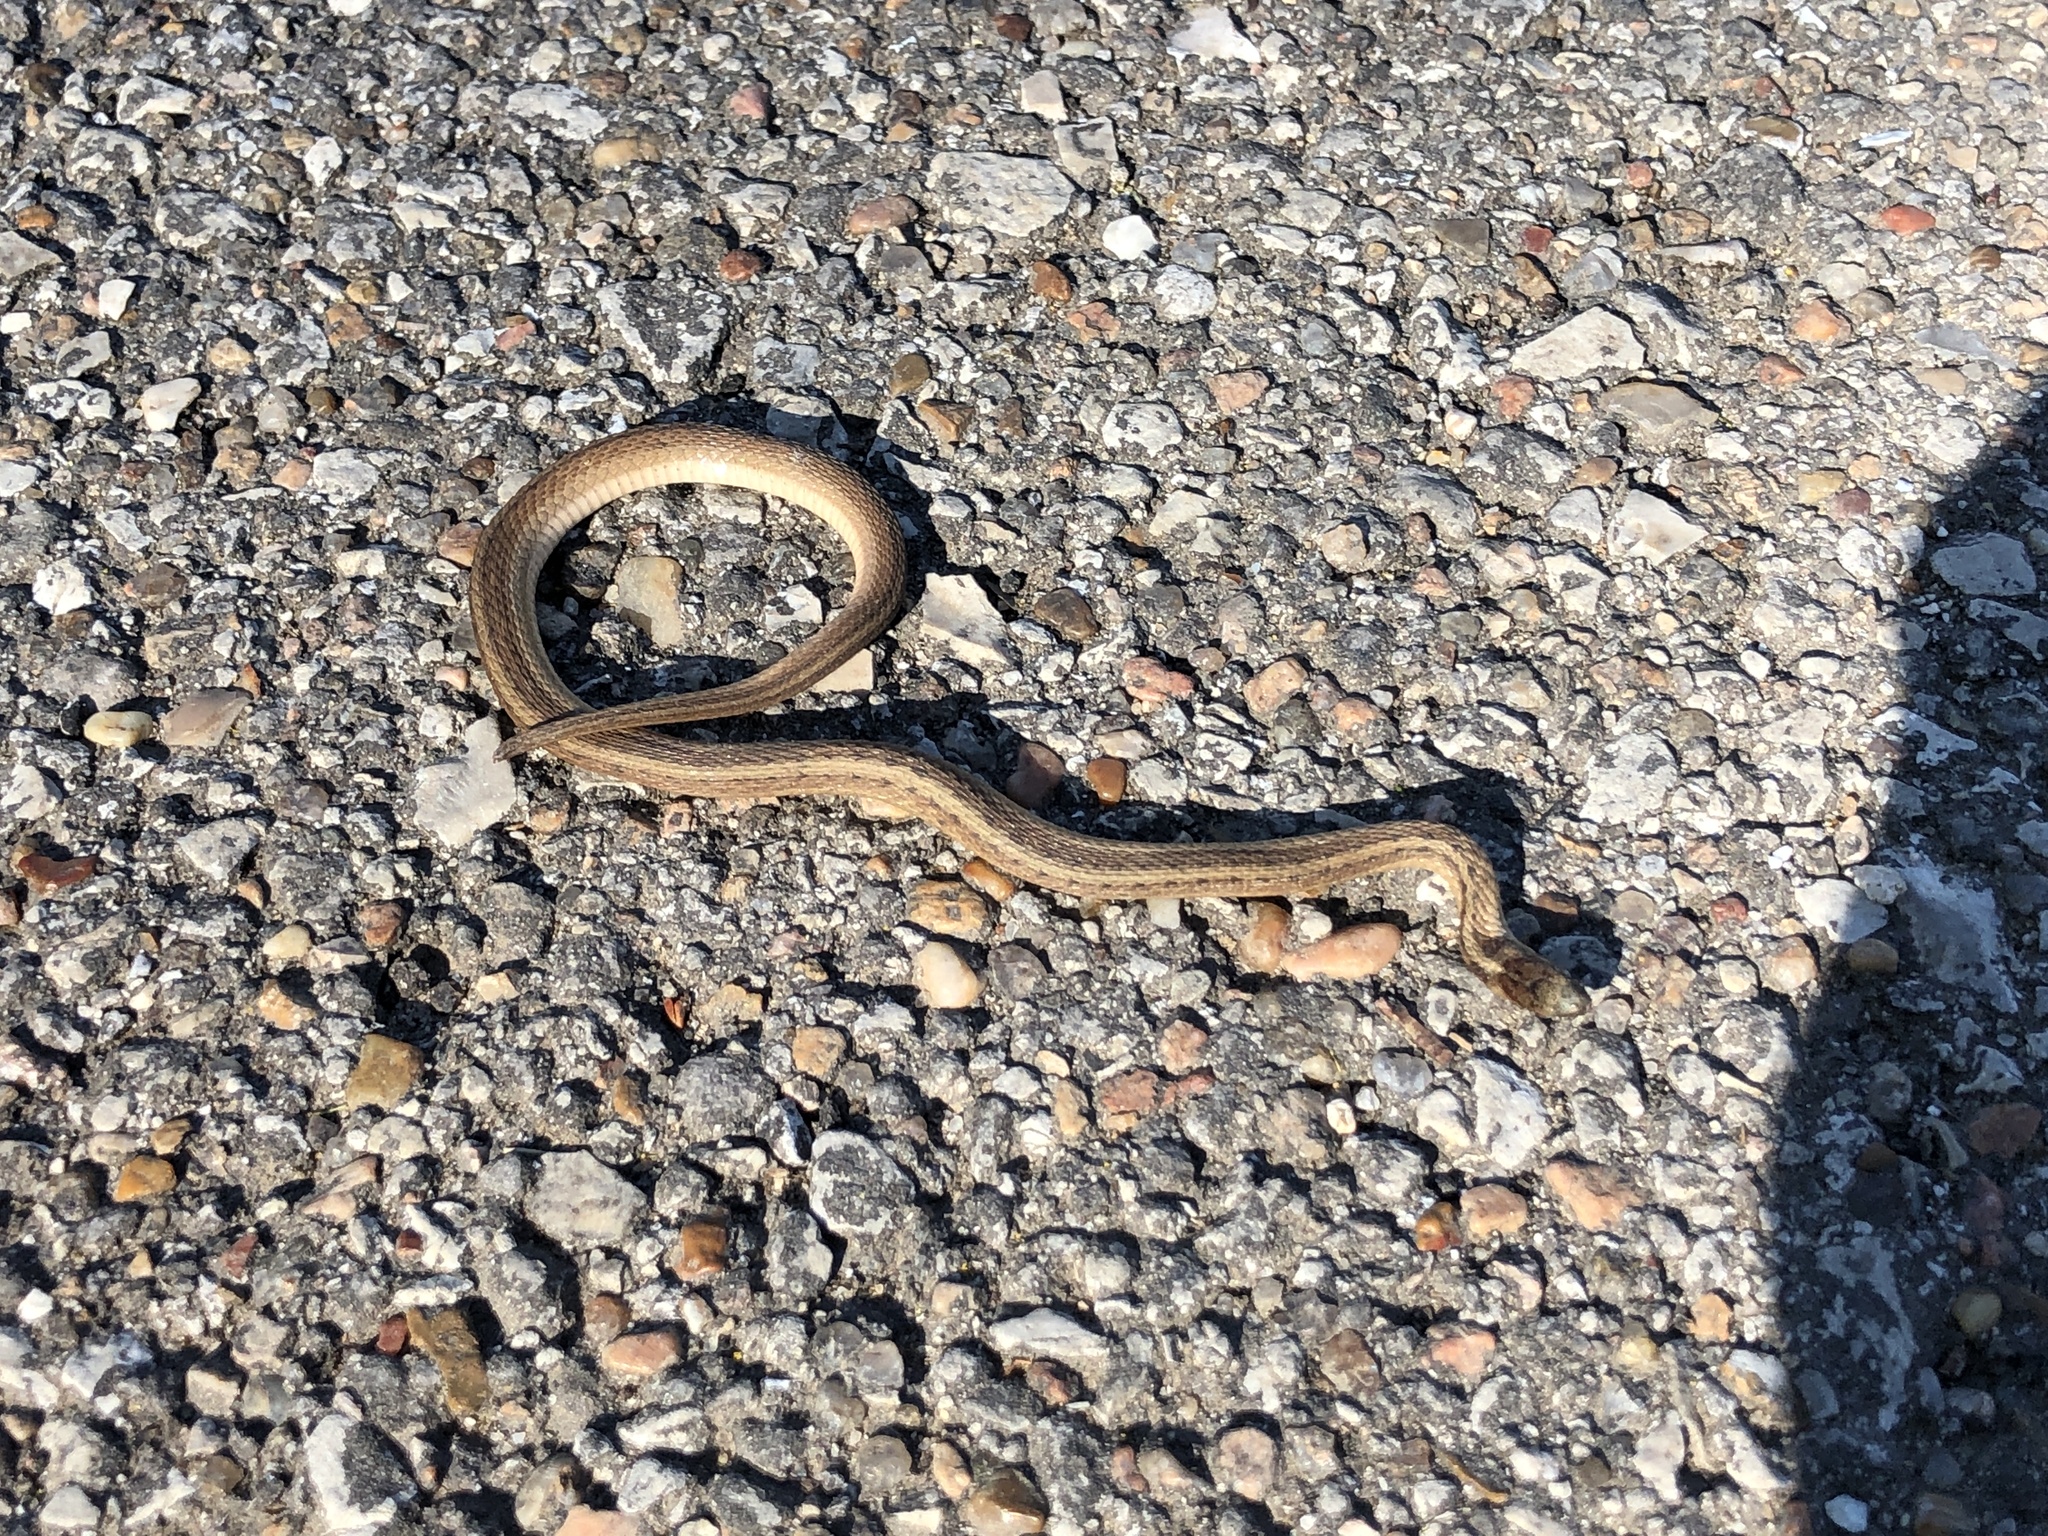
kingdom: Animalia
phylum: Chordata
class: Squamata
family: Colubridae
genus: Storeria
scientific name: Storeria dekayi
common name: (dekay’s) brown snake
